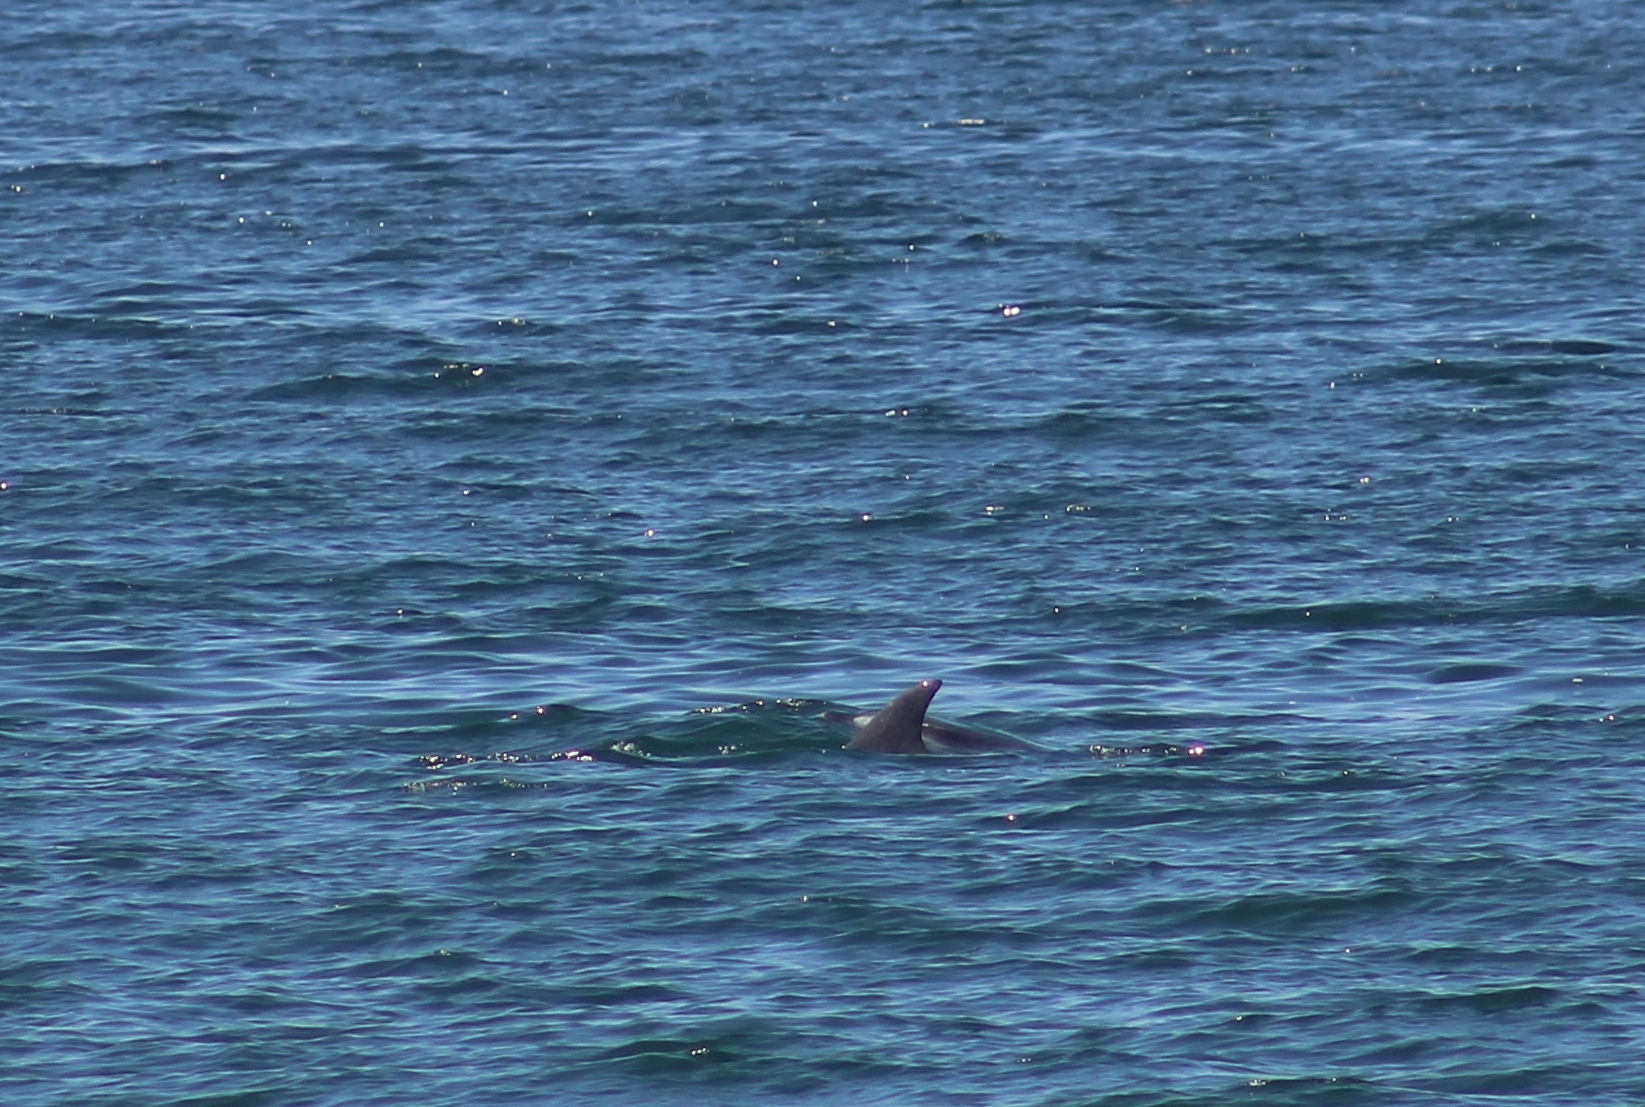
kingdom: Animalia
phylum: Chordata
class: Mammalia
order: Cetacea
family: Delphinidae
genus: Tursiops
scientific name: Tursiops truncatus
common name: Bottlenose dolphin
